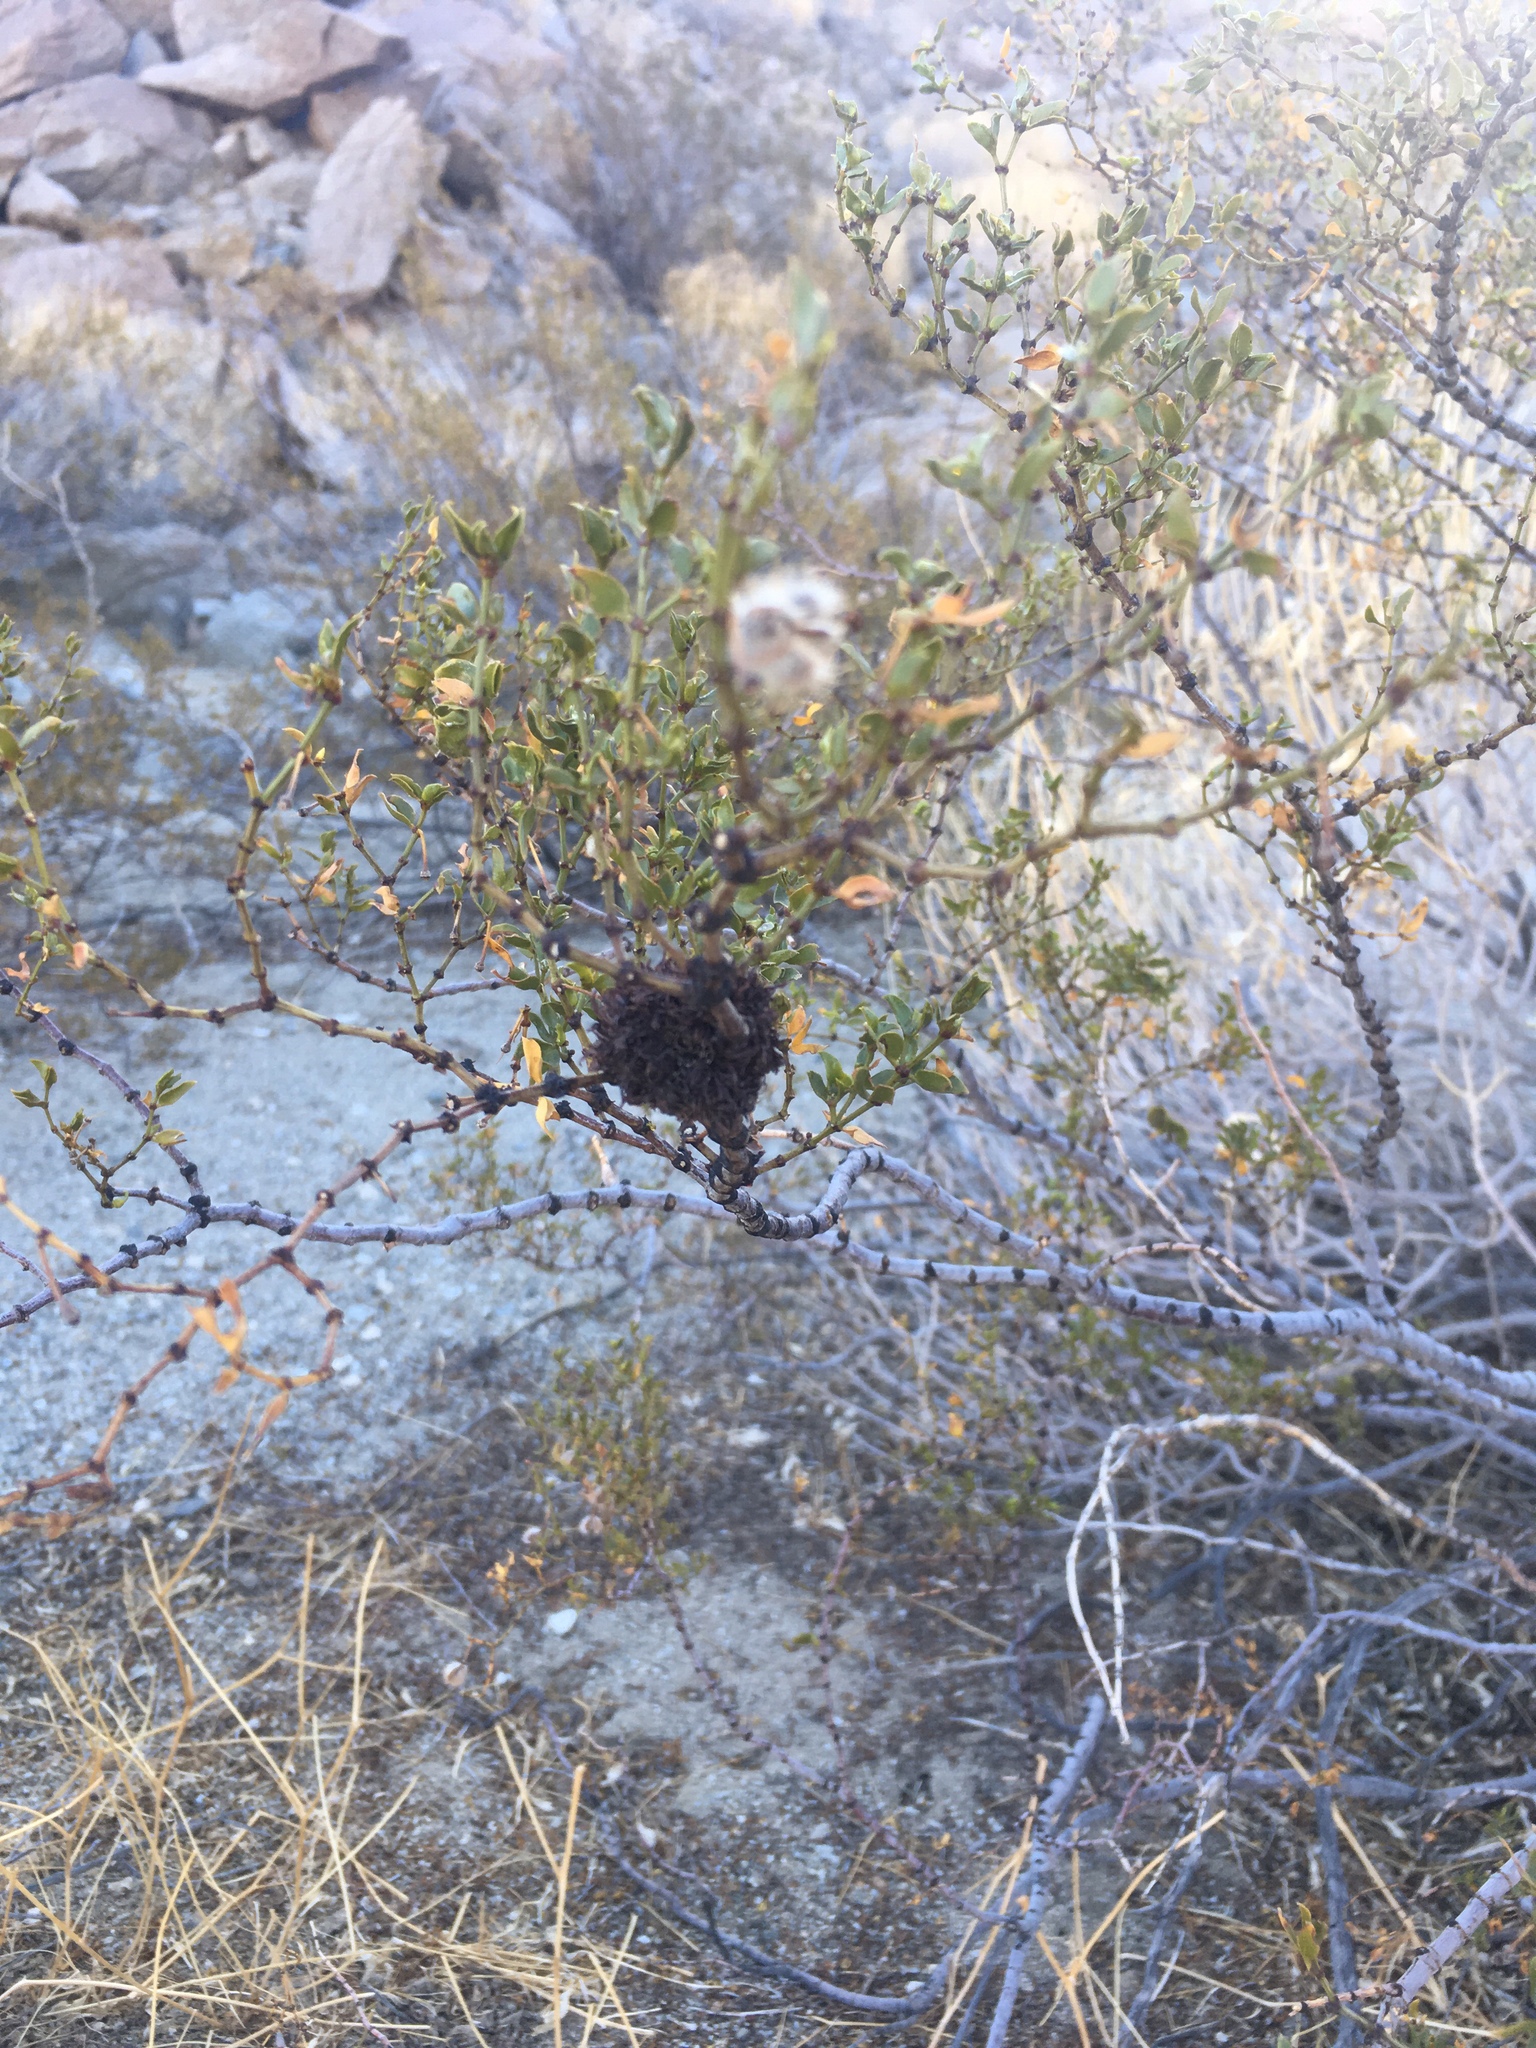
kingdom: Animalia
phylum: Arthropoda
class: Insecta
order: Diptera
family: Cecidomyiidae
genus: Asphondylia
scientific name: Asphondylia auripila
